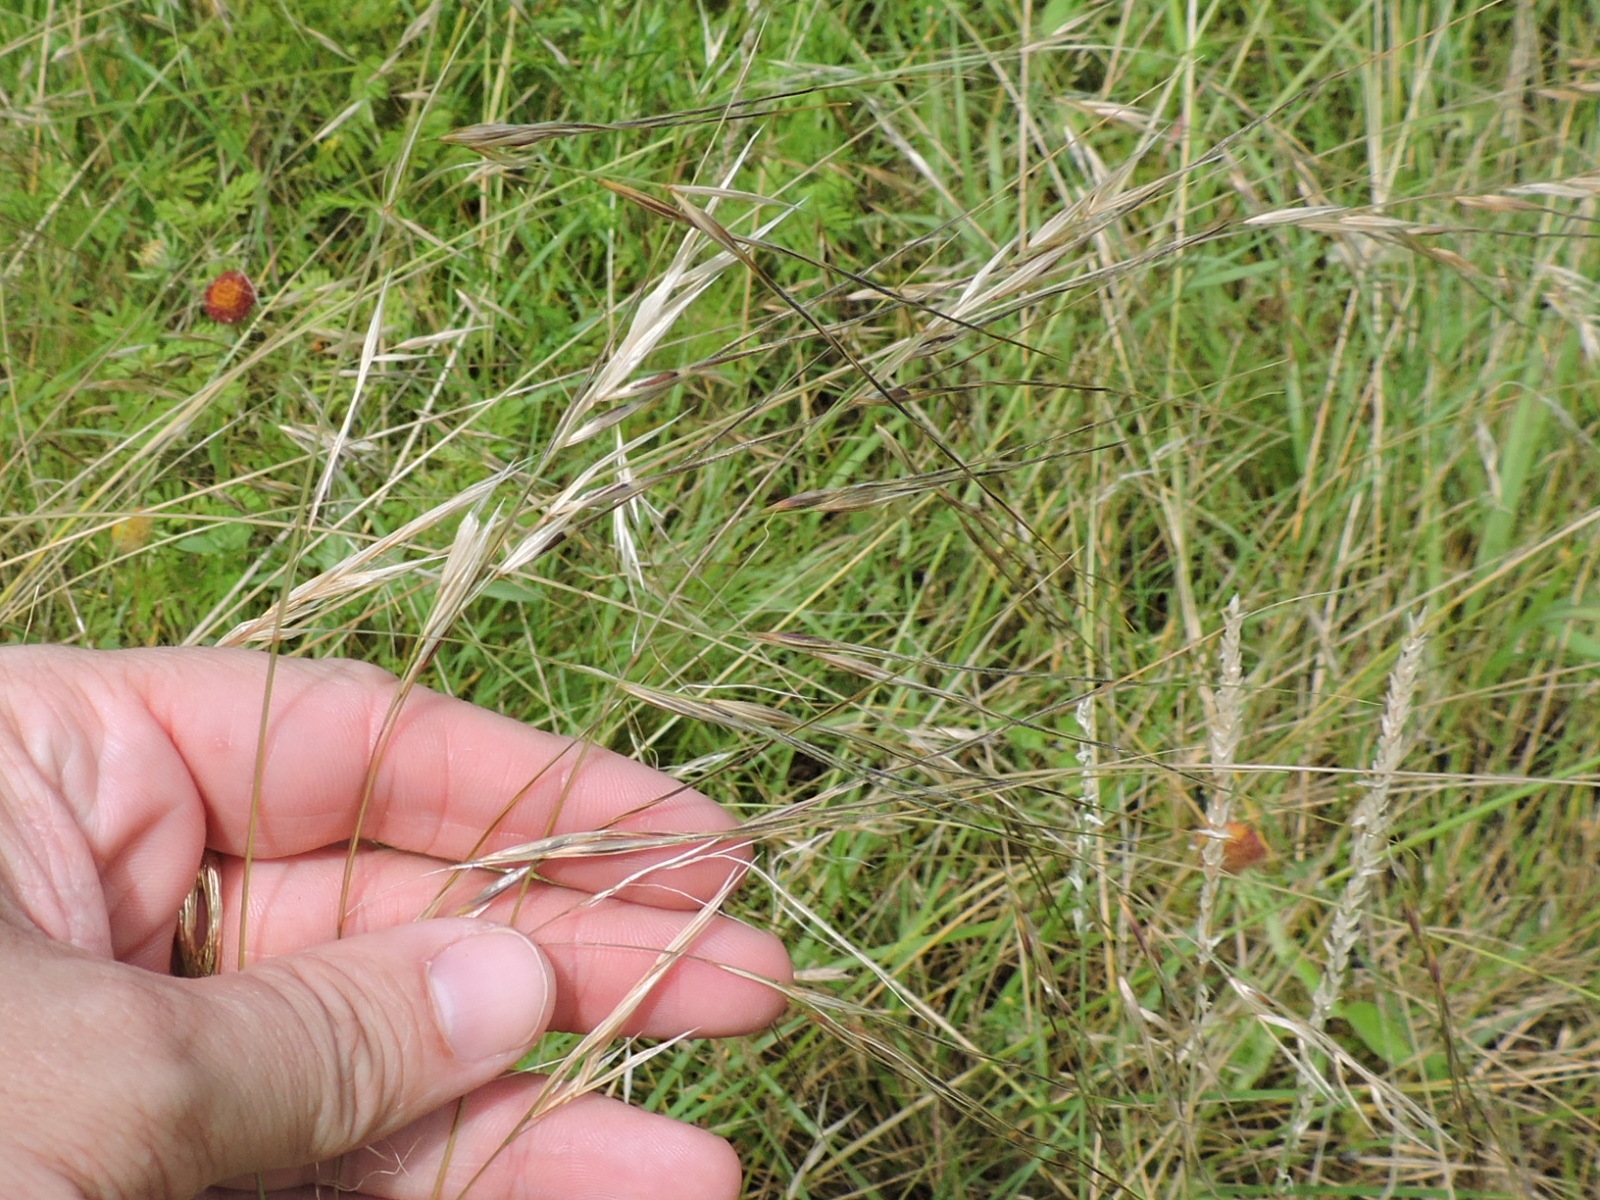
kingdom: Plantae
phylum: Tracheophyta
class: Liliopsida
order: Poales
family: Poaceae
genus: Nassella
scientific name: Nassella leucotricha
